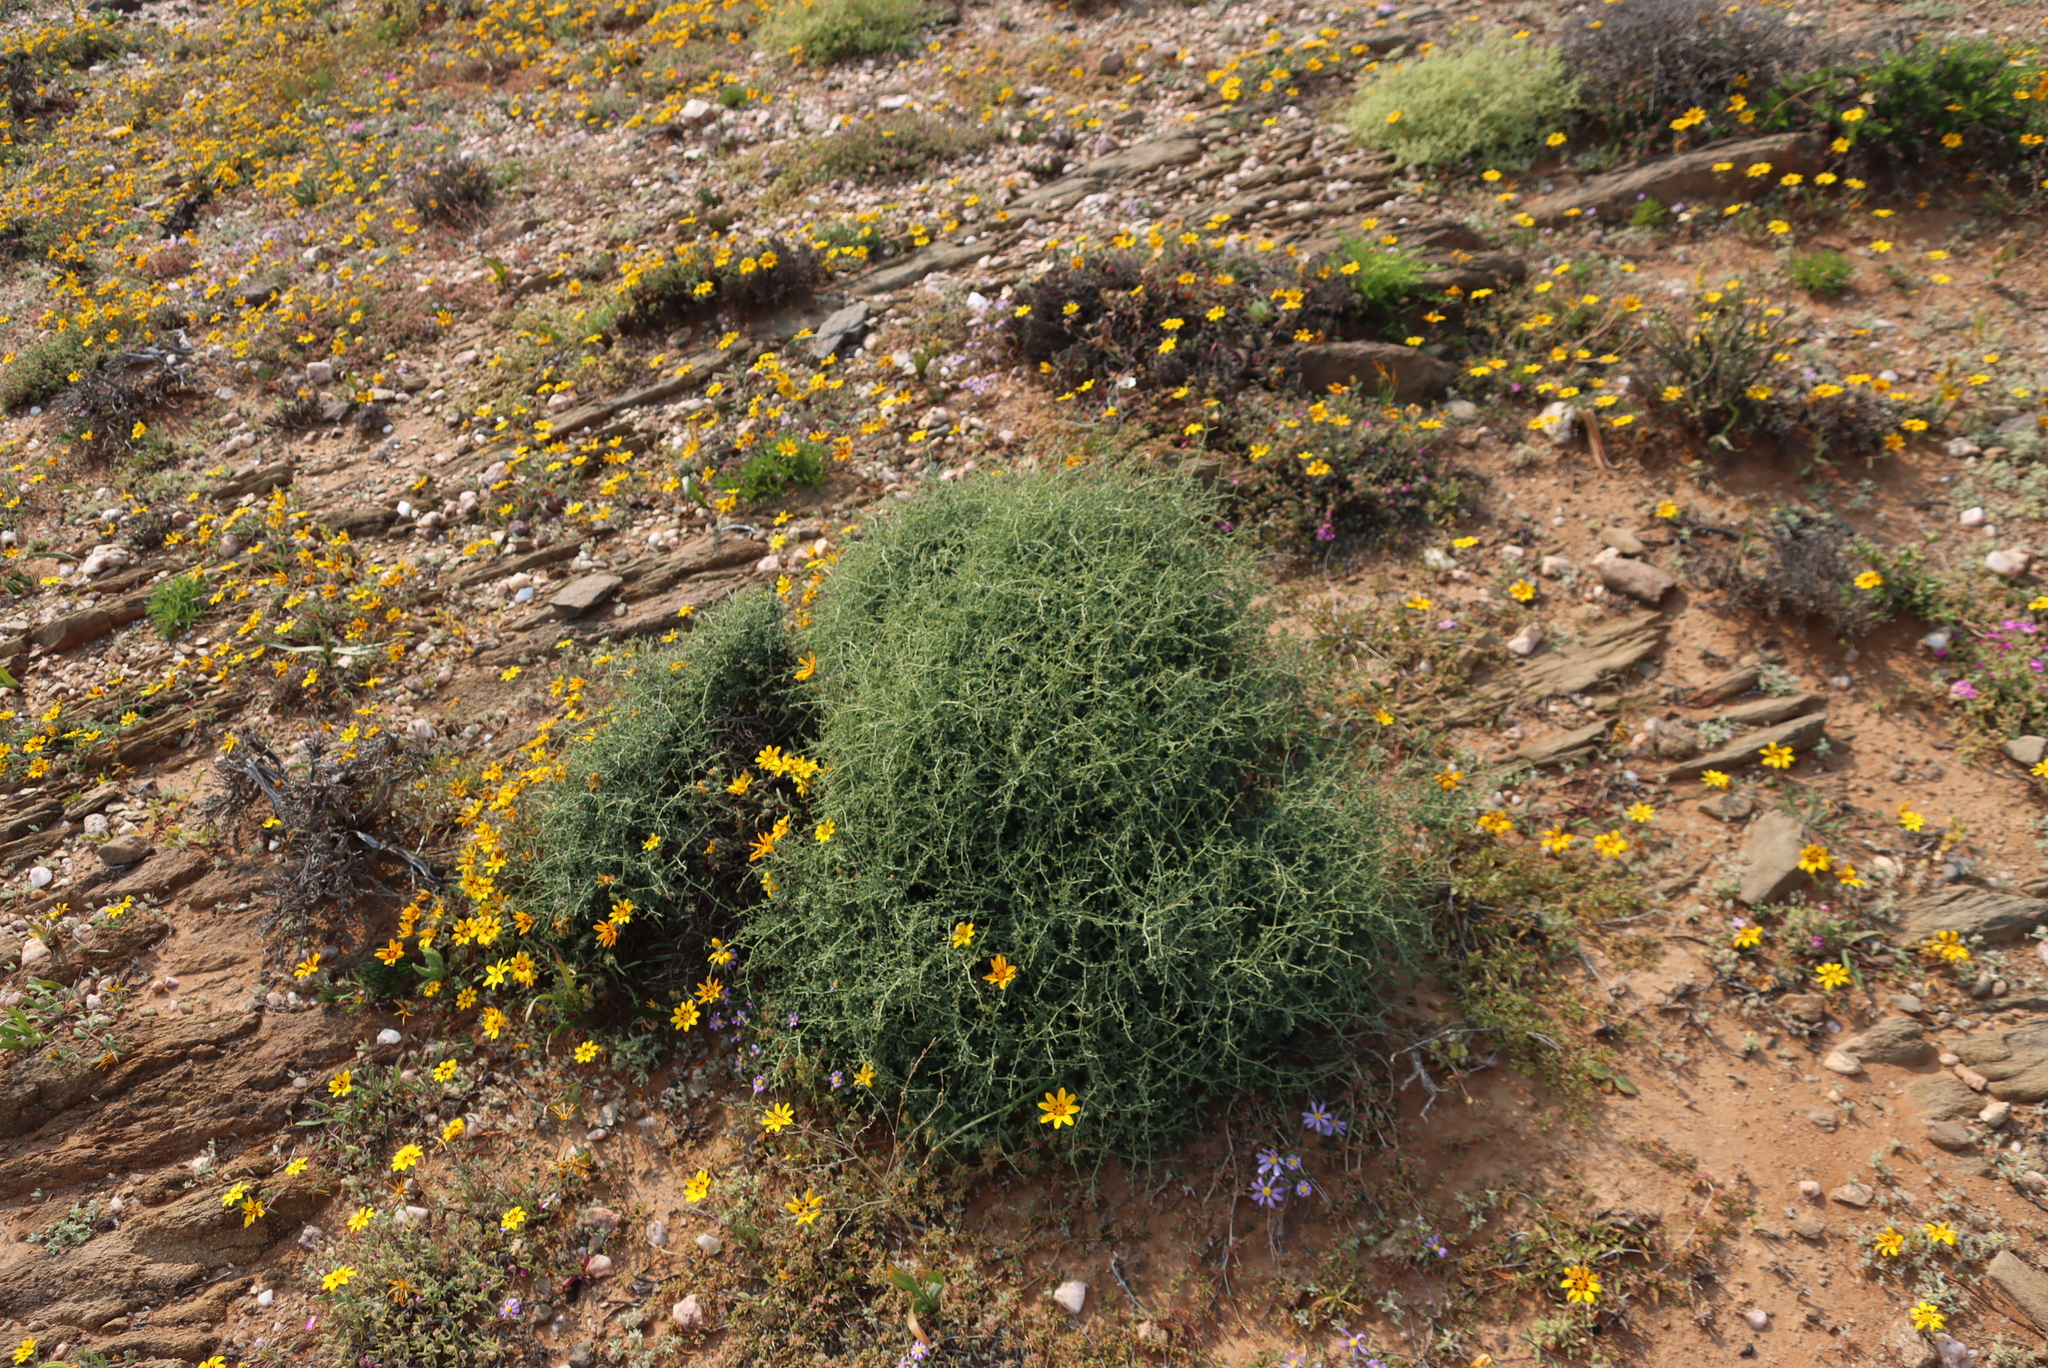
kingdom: Plantae
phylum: Tracheophyta
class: Magnoliopsida
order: Zygophyllales
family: Zygophyllaceae
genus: Tetraena
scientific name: Tetraena retrofracta
